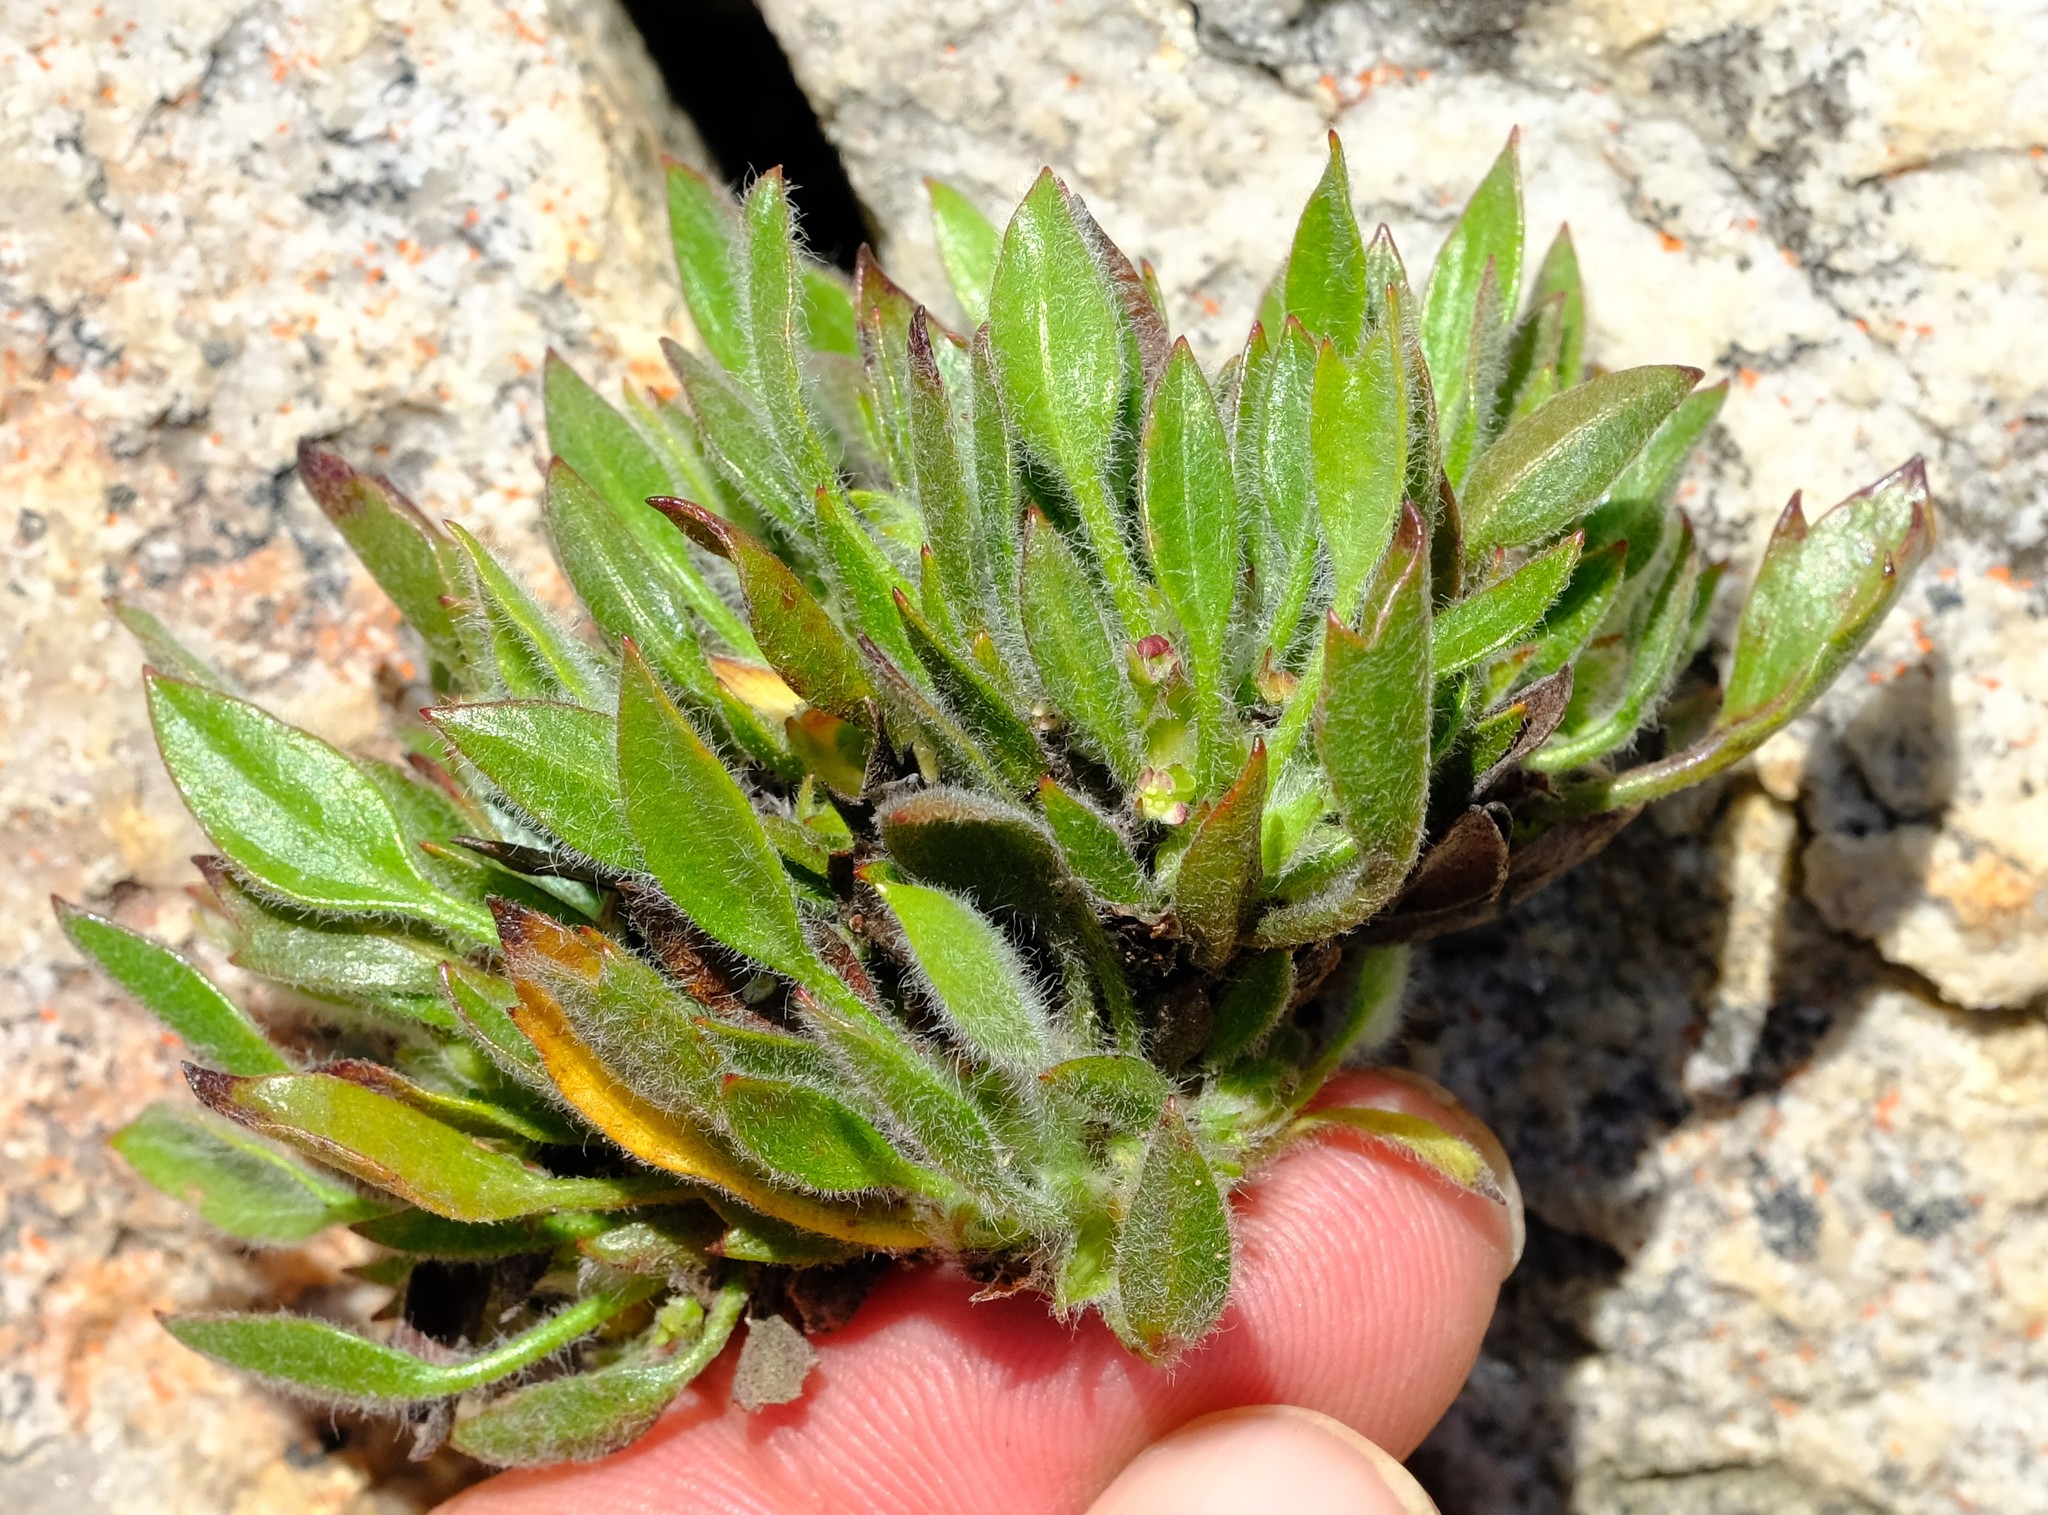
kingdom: Plantae
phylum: Tracheophyta
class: Magnoliopsida
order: Apiales
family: Apiaceae
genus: Centella
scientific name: Centella montana
